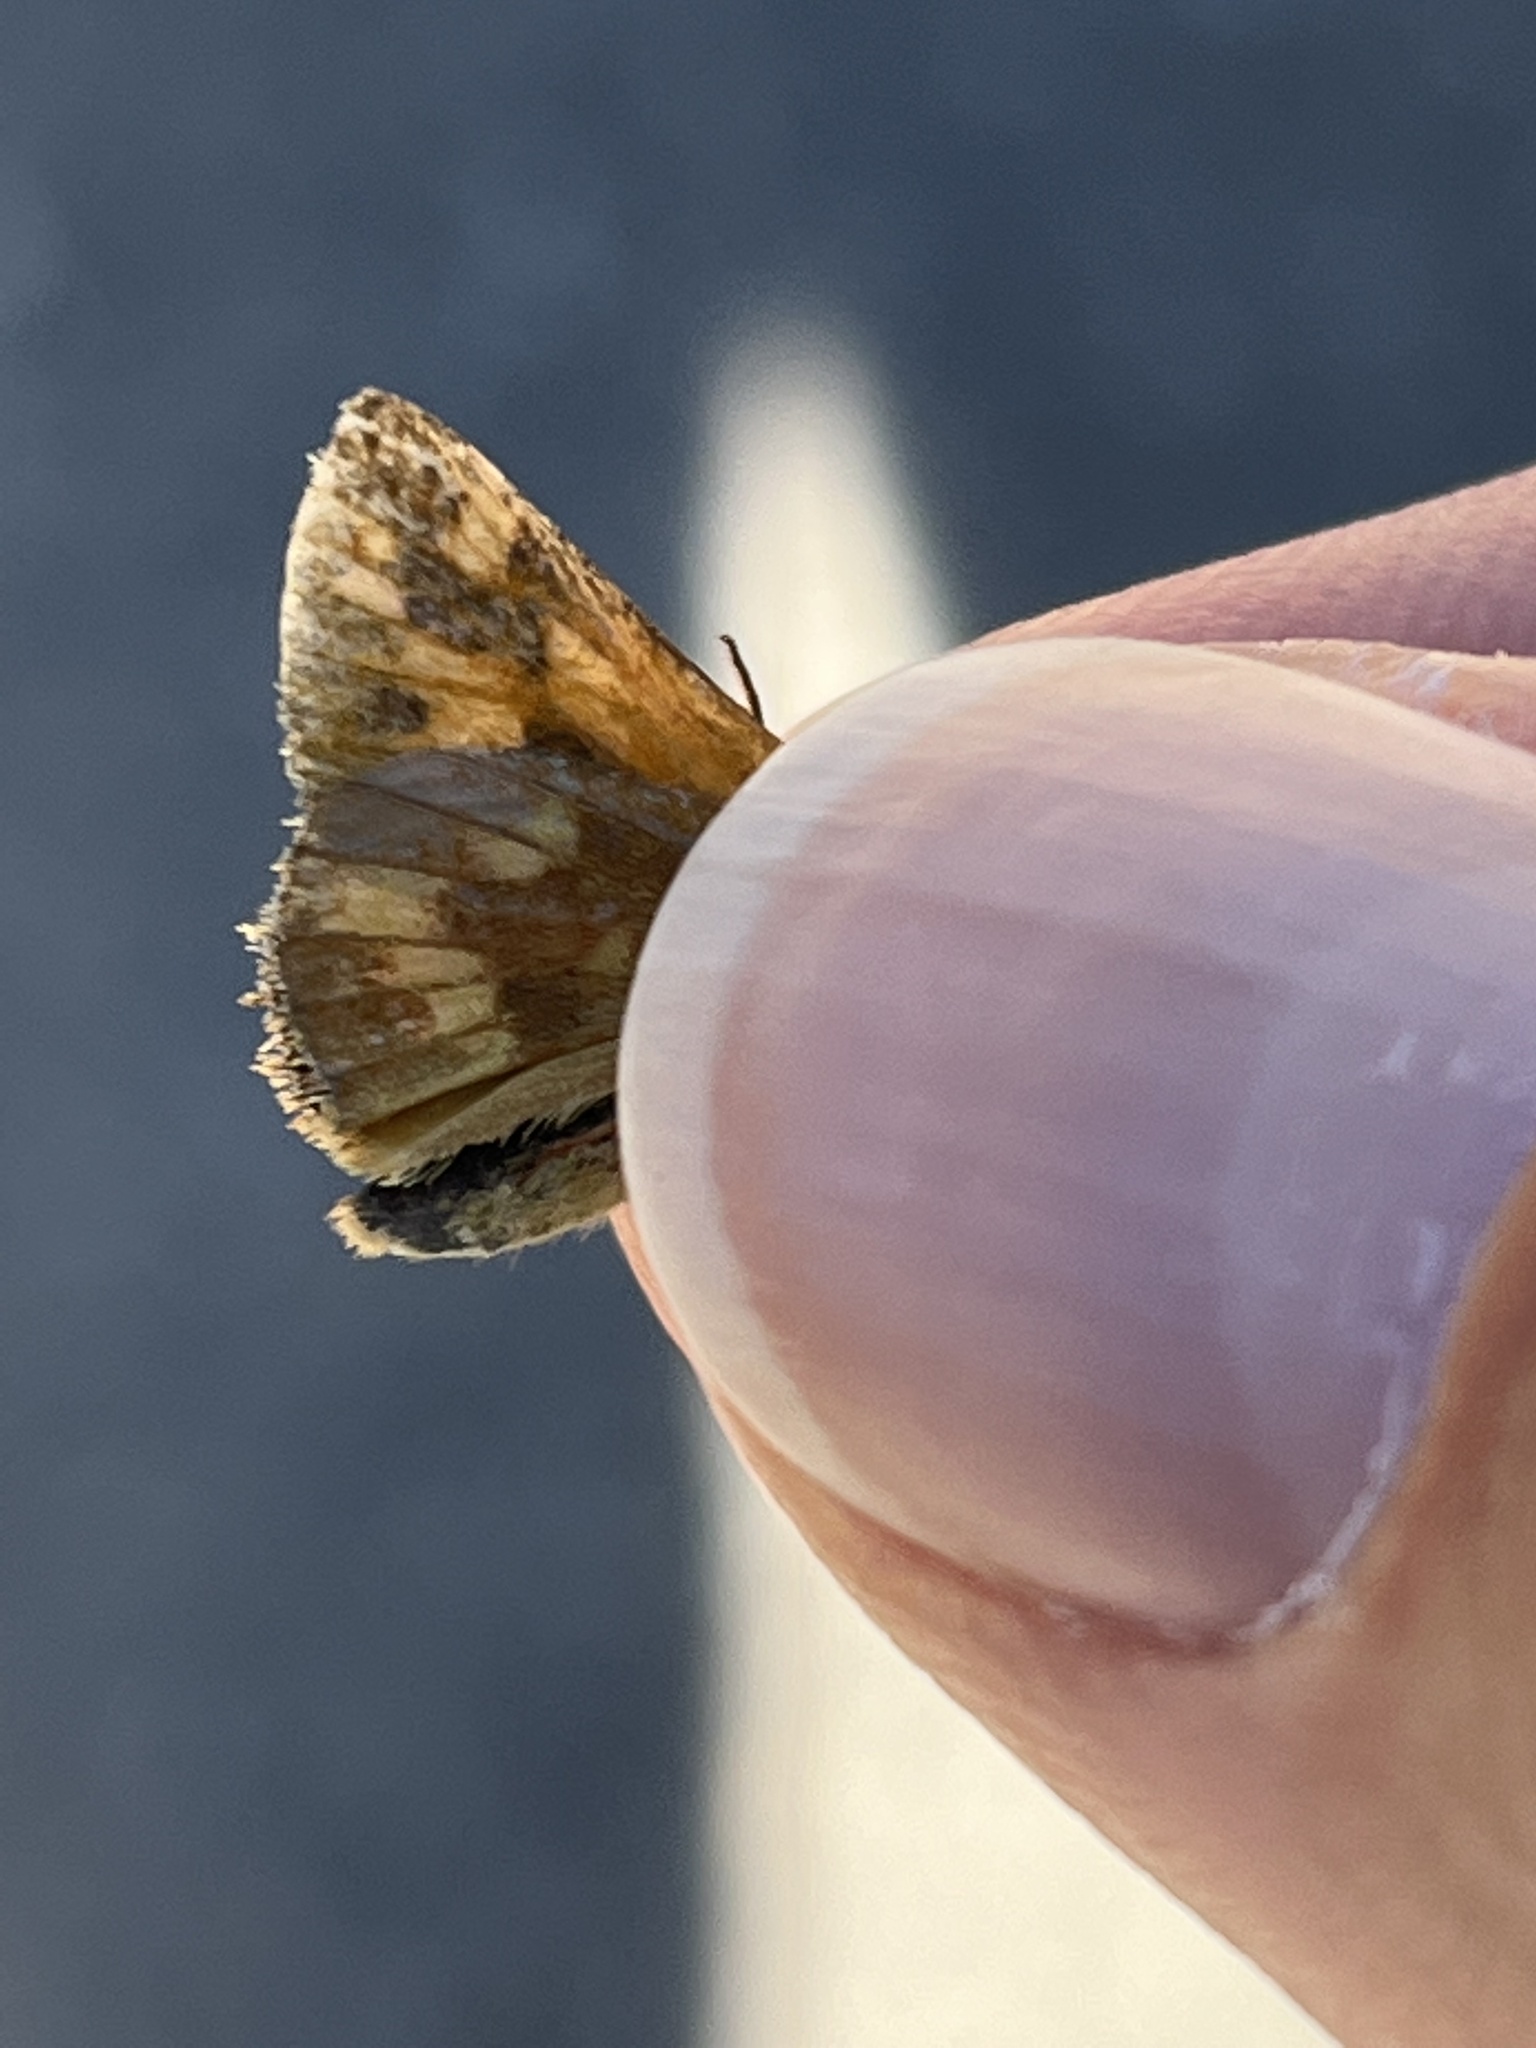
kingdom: Animalia
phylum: Arthropoda
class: Insecta
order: Lepidoptera
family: Hesperiidae
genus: Ochlodes
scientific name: Ochlodes sylvanoides
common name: Woodland skipper
